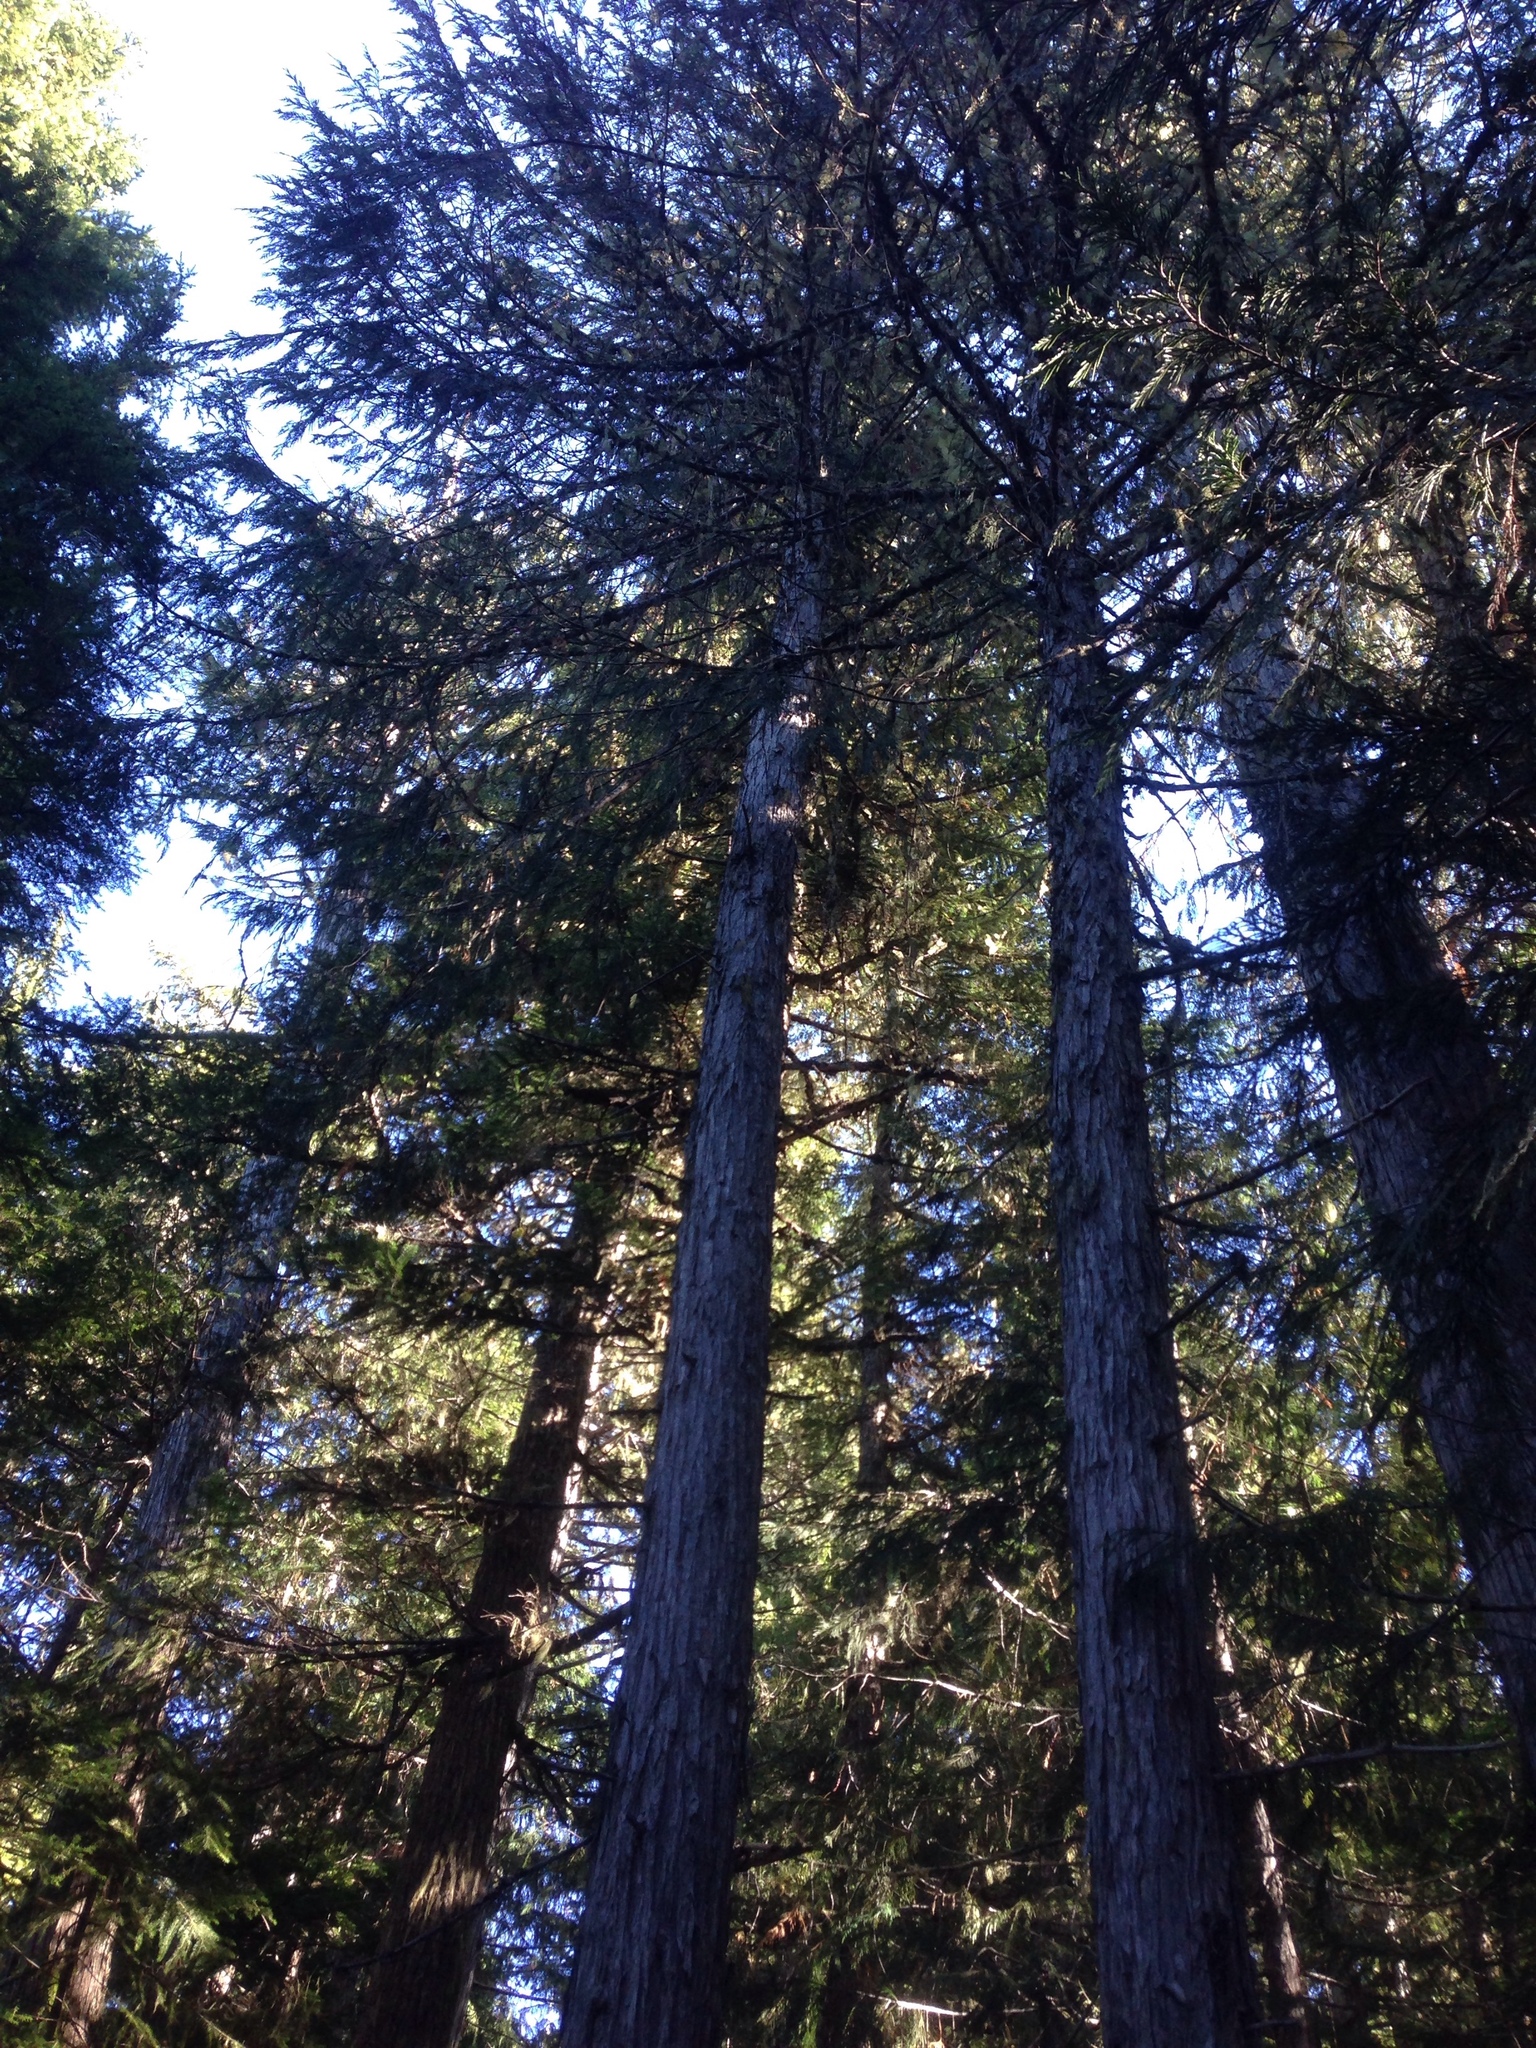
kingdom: Plantae
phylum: Tracheophyta
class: Pinopsida
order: Pinales
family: Cupressaceae
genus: Xanthocyparis
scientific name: Xanthocyparis nootkatensis
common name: Nootka cypress
